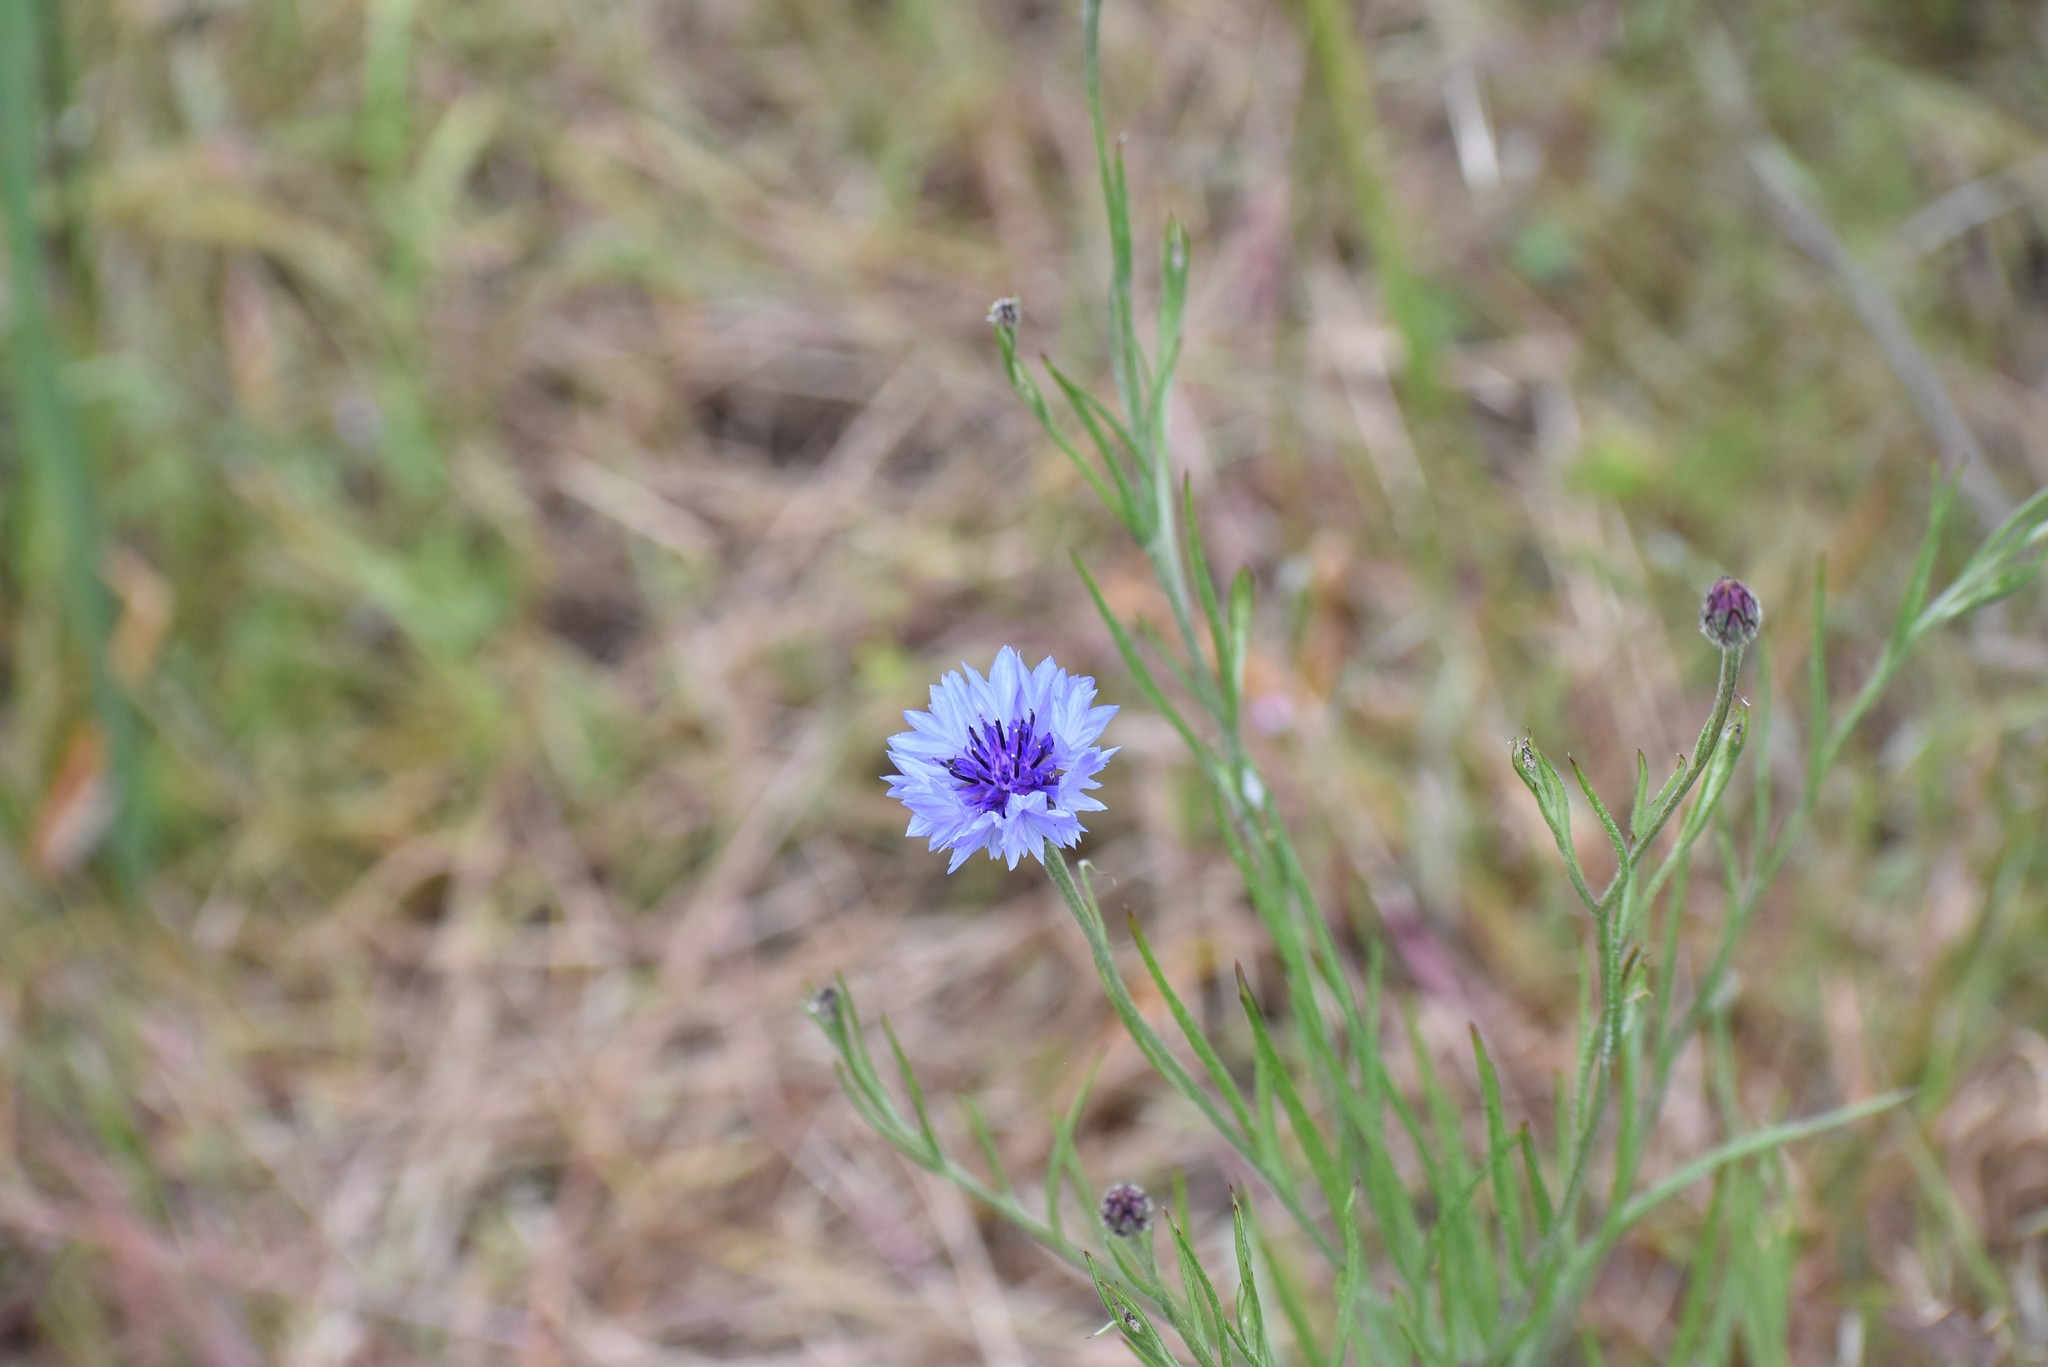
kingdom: Plantae
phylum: Tracheophyta
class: Magnoliopsida
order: Asterales
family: Asteraceae
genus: Centaurea
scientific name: Centaurea cyanus
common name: Cornflower
